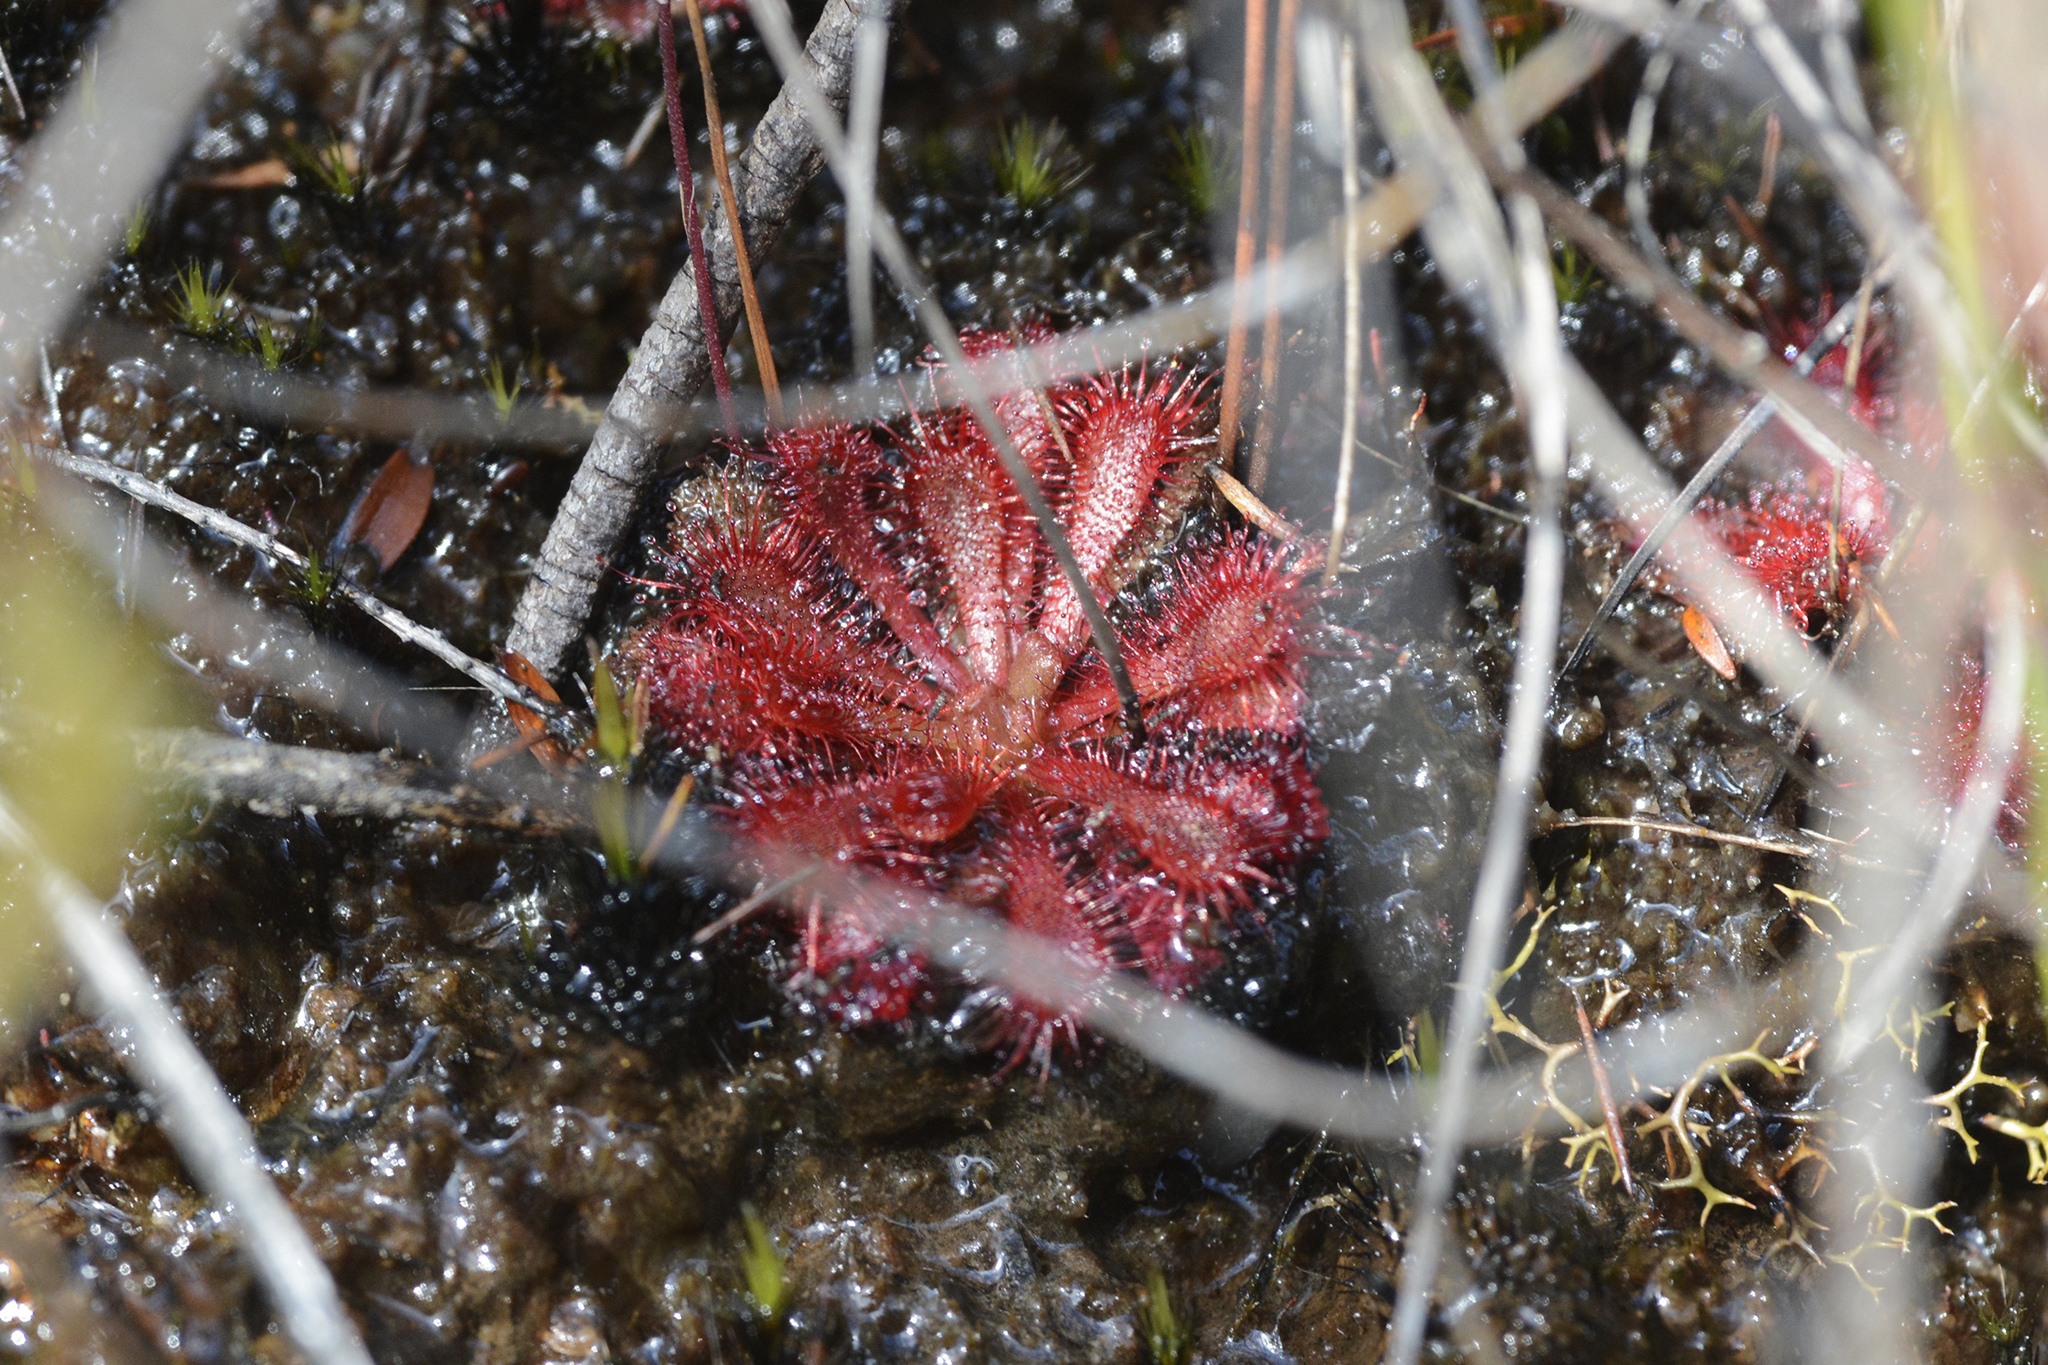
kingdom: Plantae
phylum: Tracheophyta
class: Magnoliopsida
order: Caryophyllales
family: Droseraceae
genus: Drosera
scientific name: Drosera spatulata
